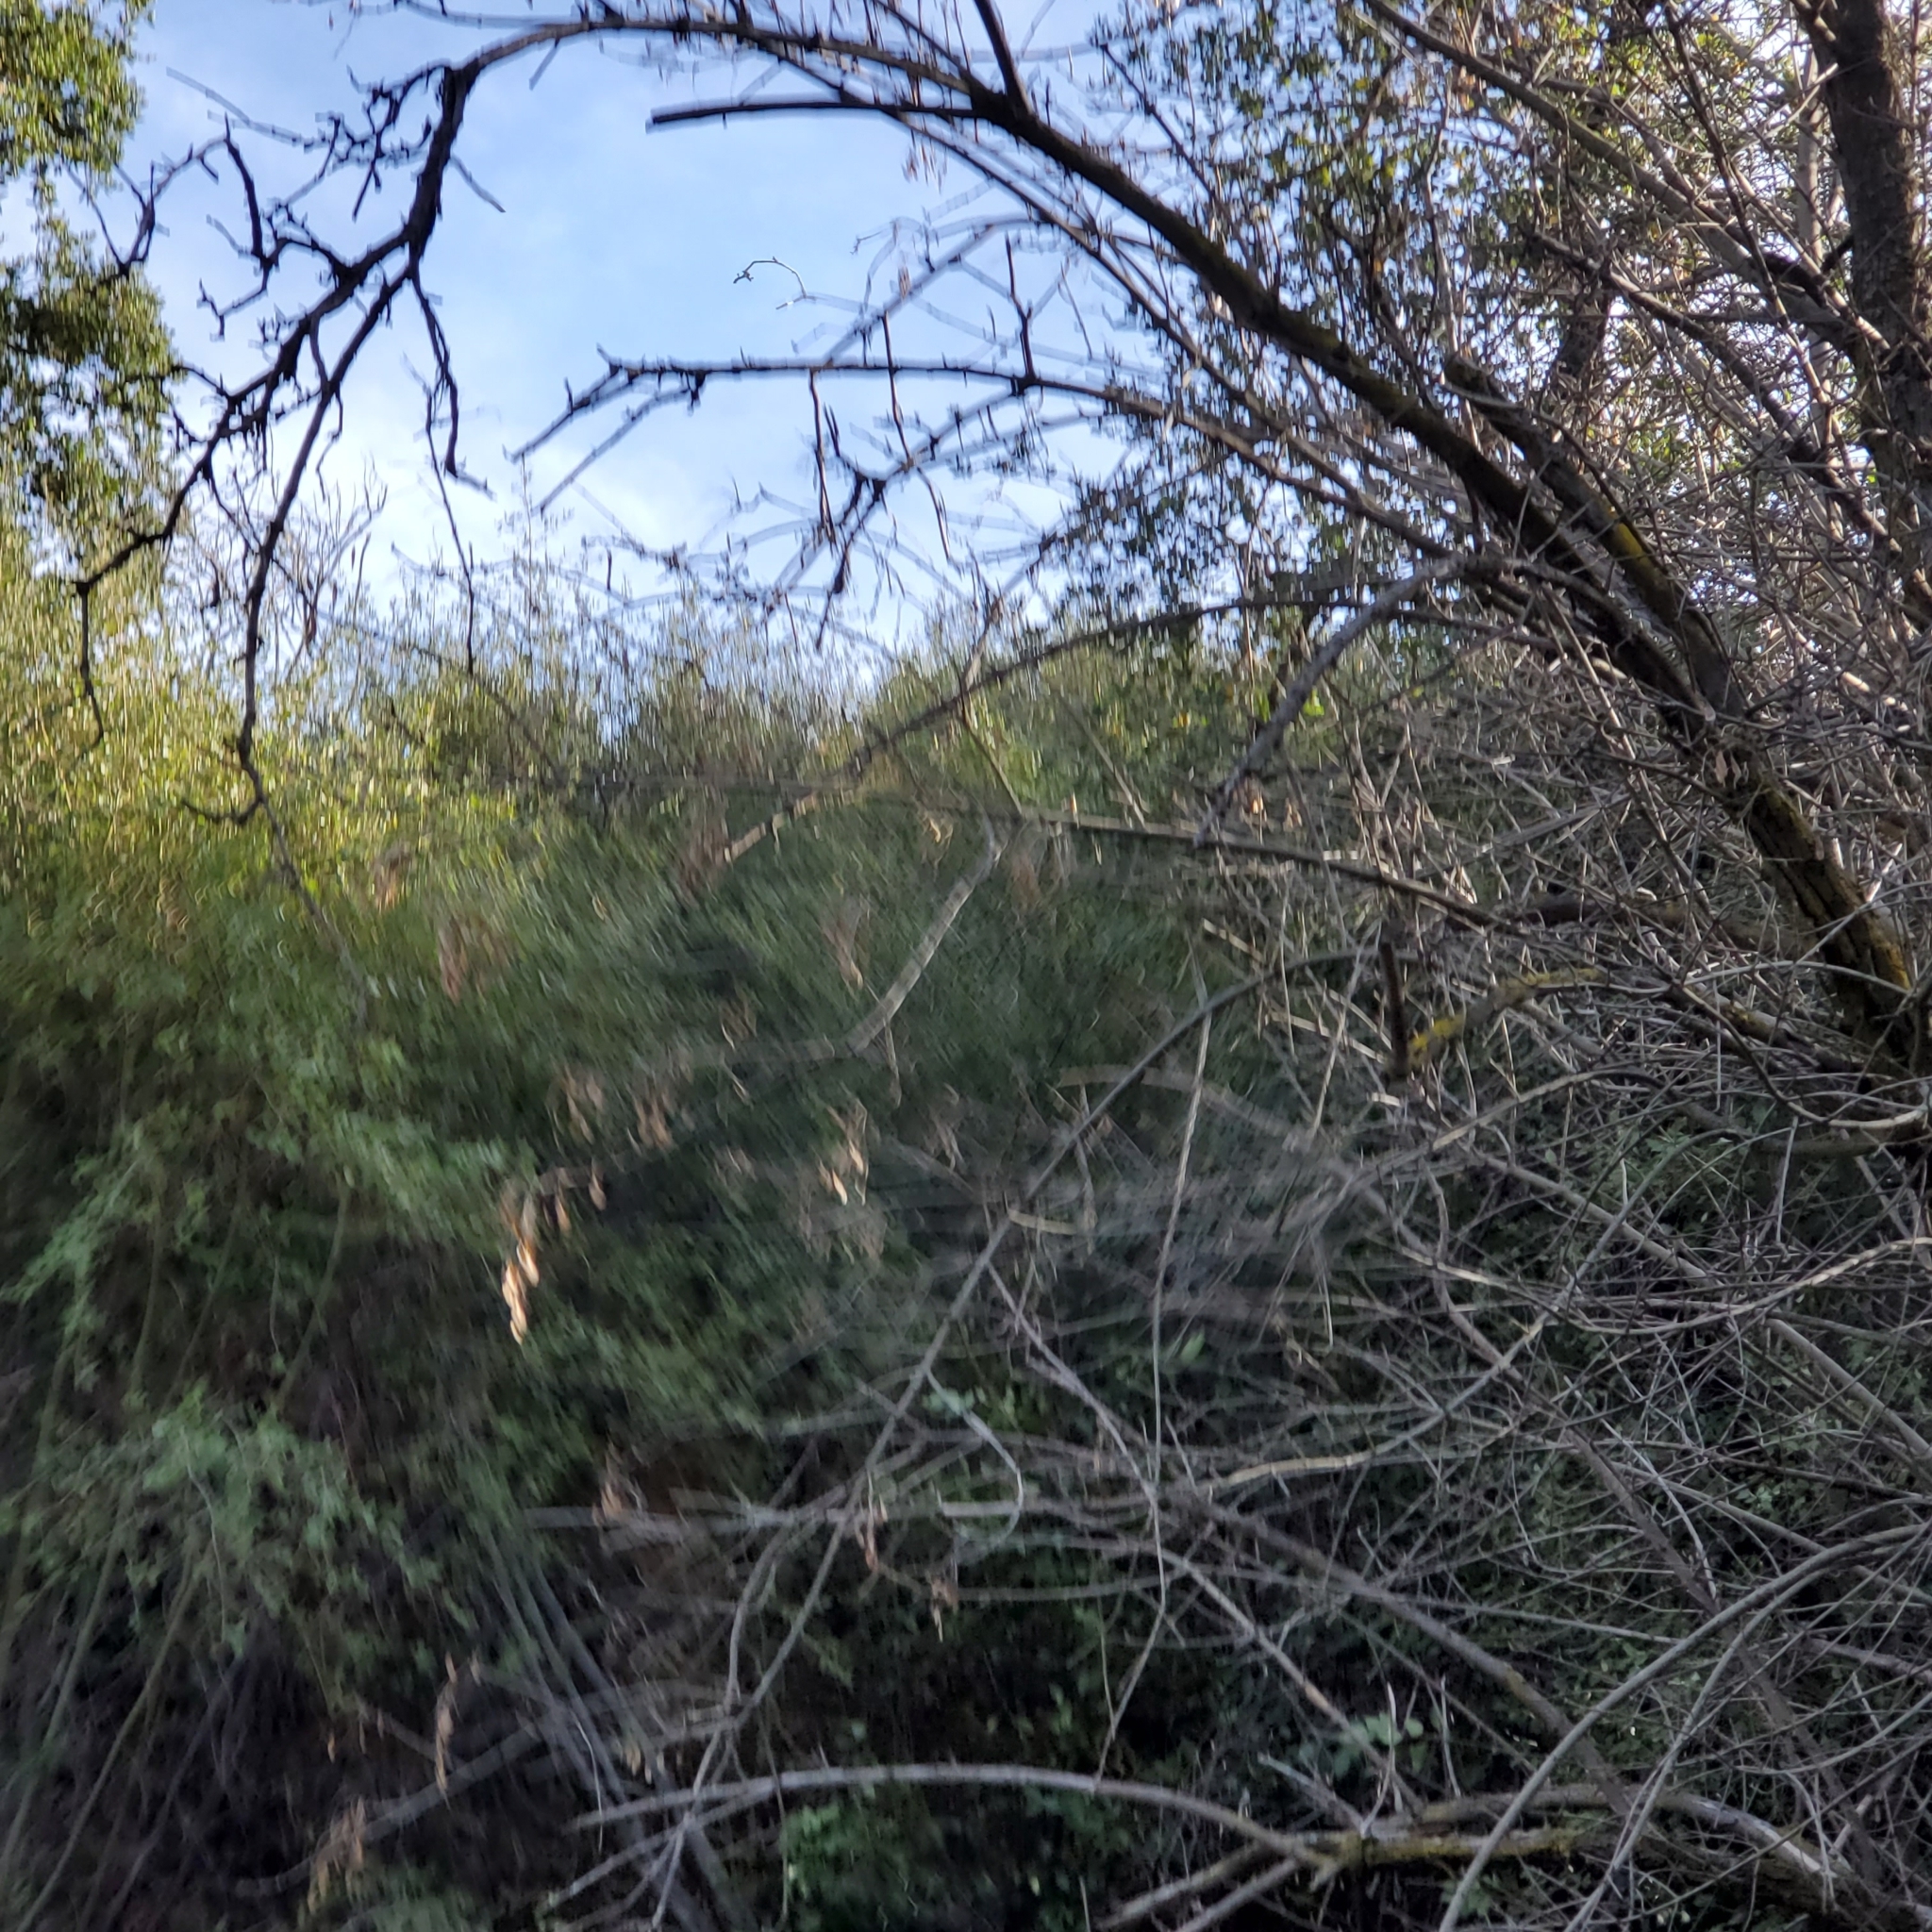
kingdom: Plantae
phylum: Tracheophyta
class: Magnoliopsida
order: Lamiales
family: Oleaceae
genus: Fraxinus
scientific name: Fraxinus dipetala
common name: California ash
